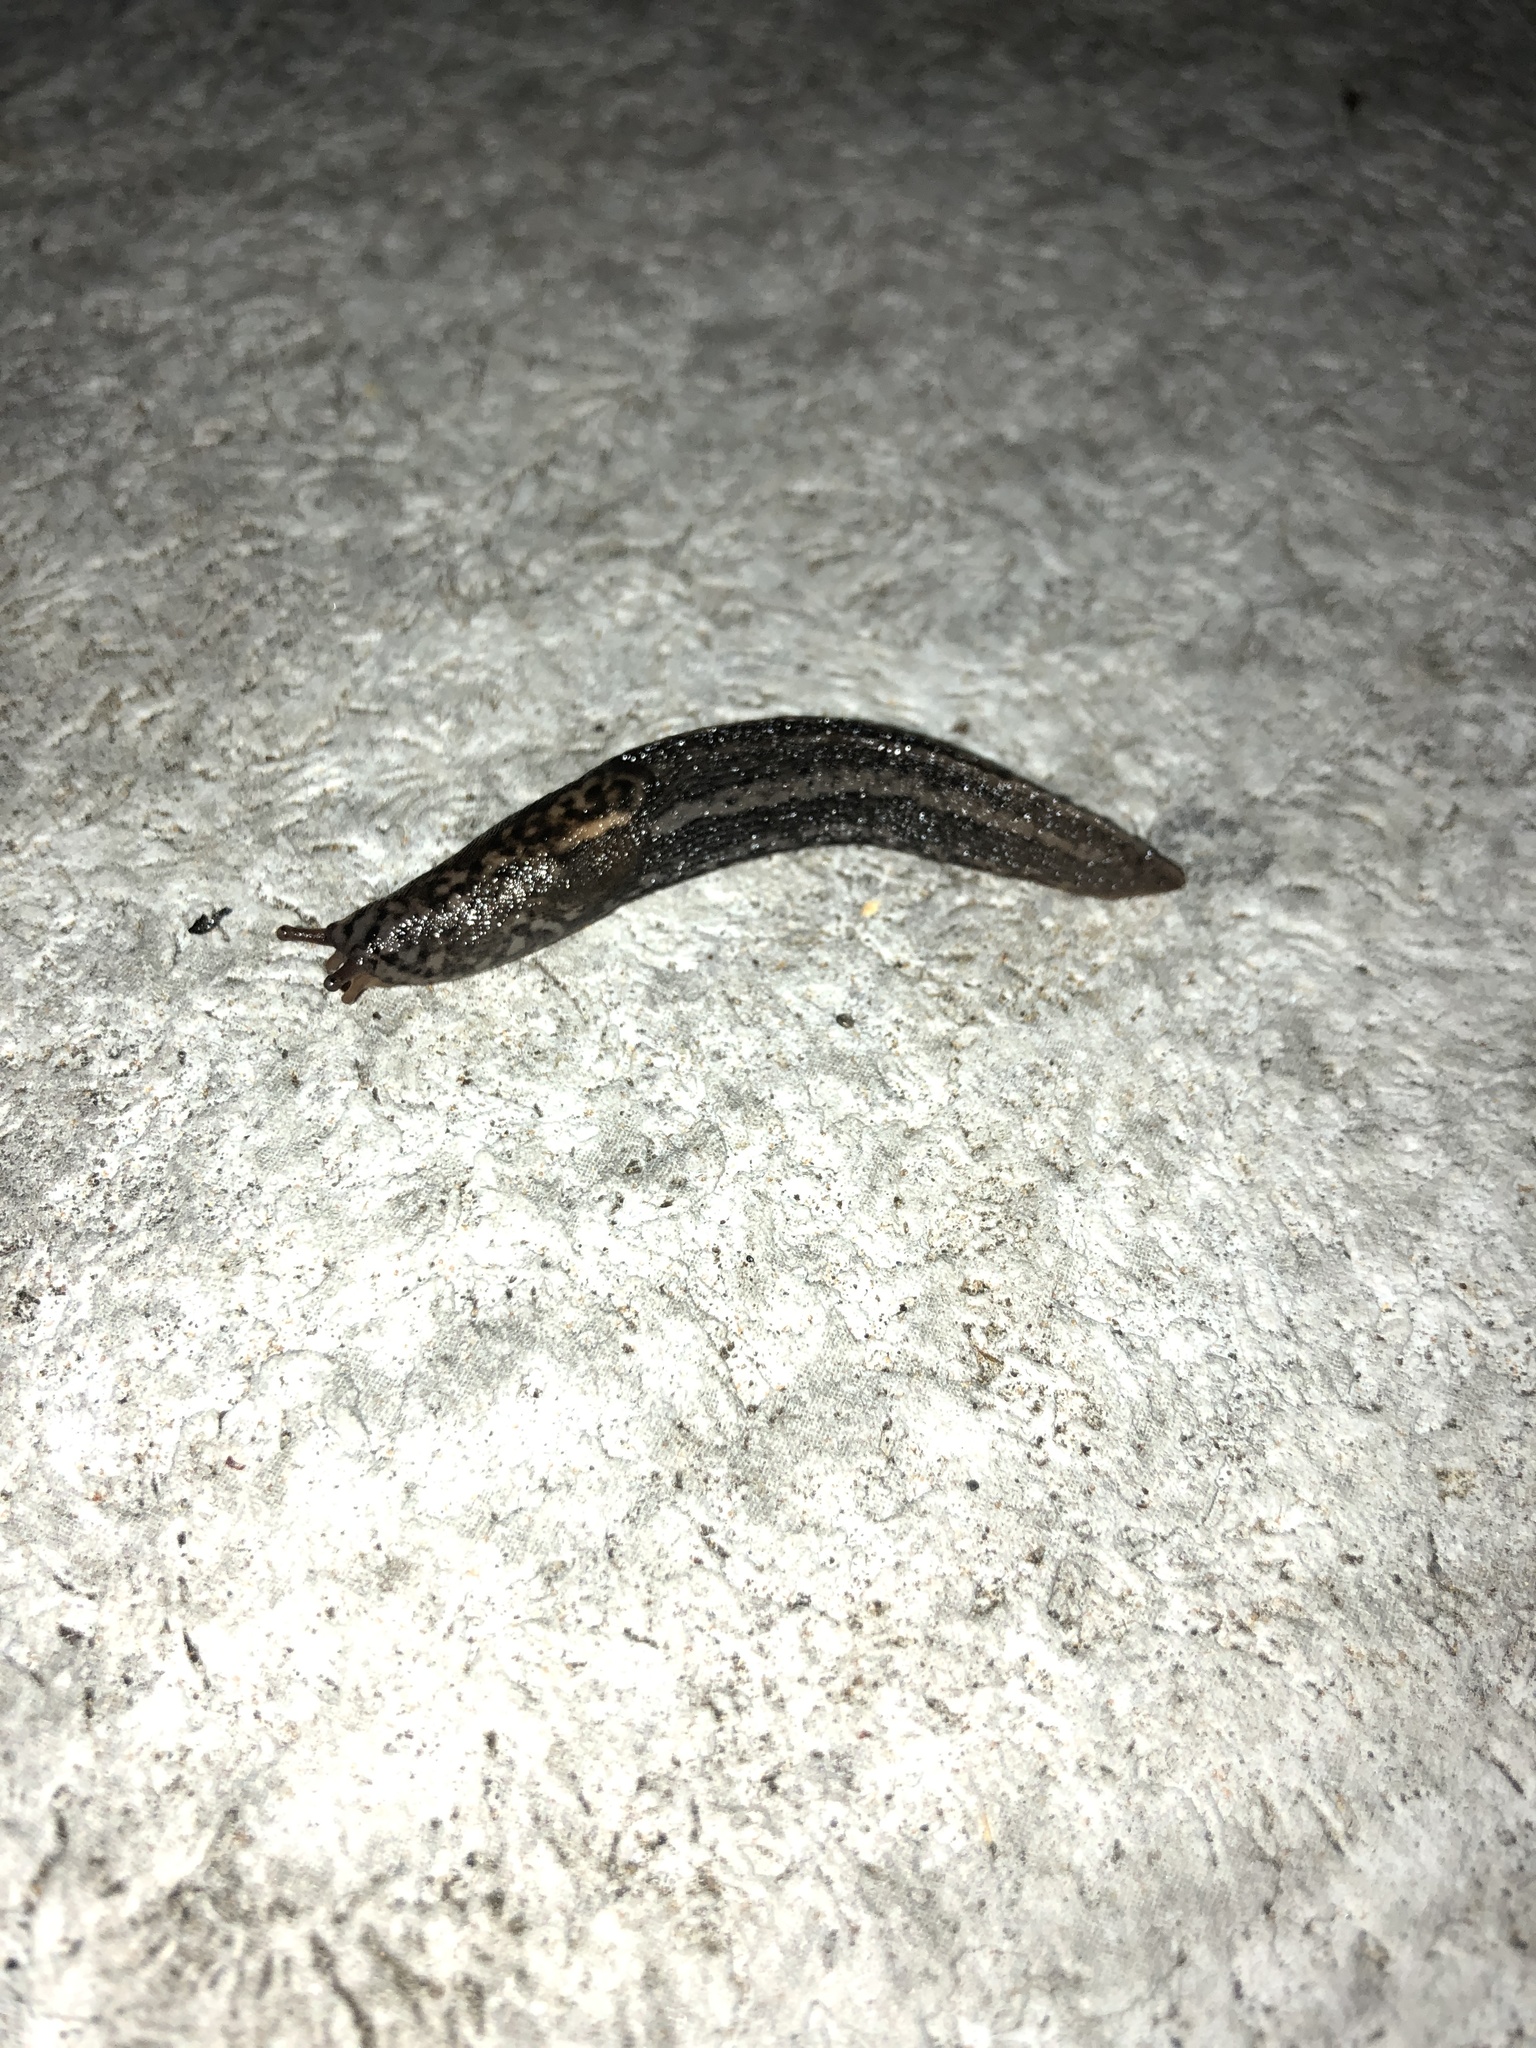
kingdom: Animalia
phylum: Mollusca
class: Gastropoda
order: Stylommatophora
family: Limacidae
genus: Limax
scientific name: Limax maximus
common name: Great grey slug
